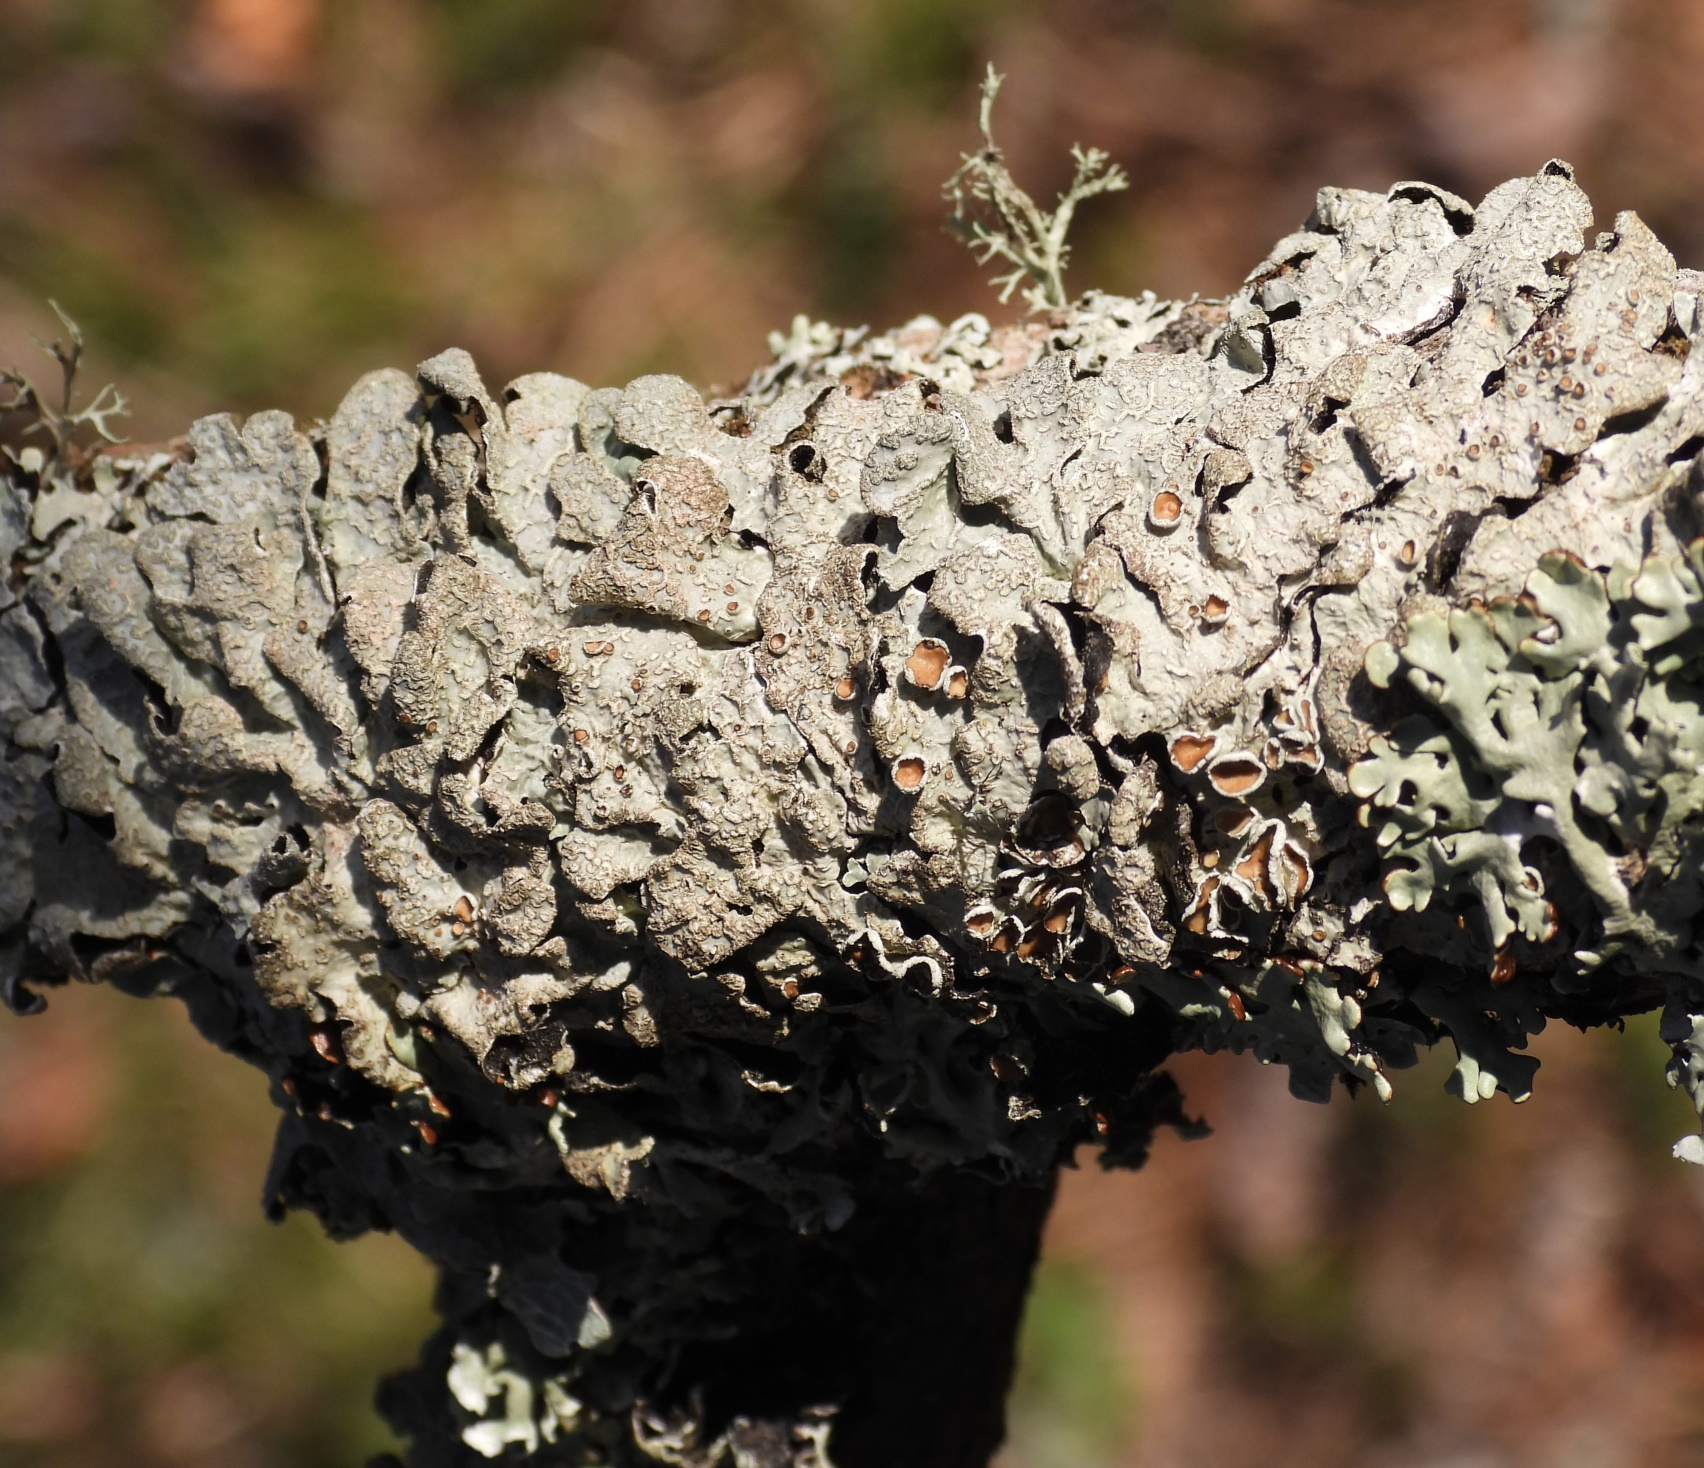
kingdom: Fungi
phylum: Ascomycota
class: Lecanoromycetes
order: Lecanorales
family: Parmeliaceae
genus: Parmelia
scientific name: Parmelia sulcata
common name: Netted shield lichen
